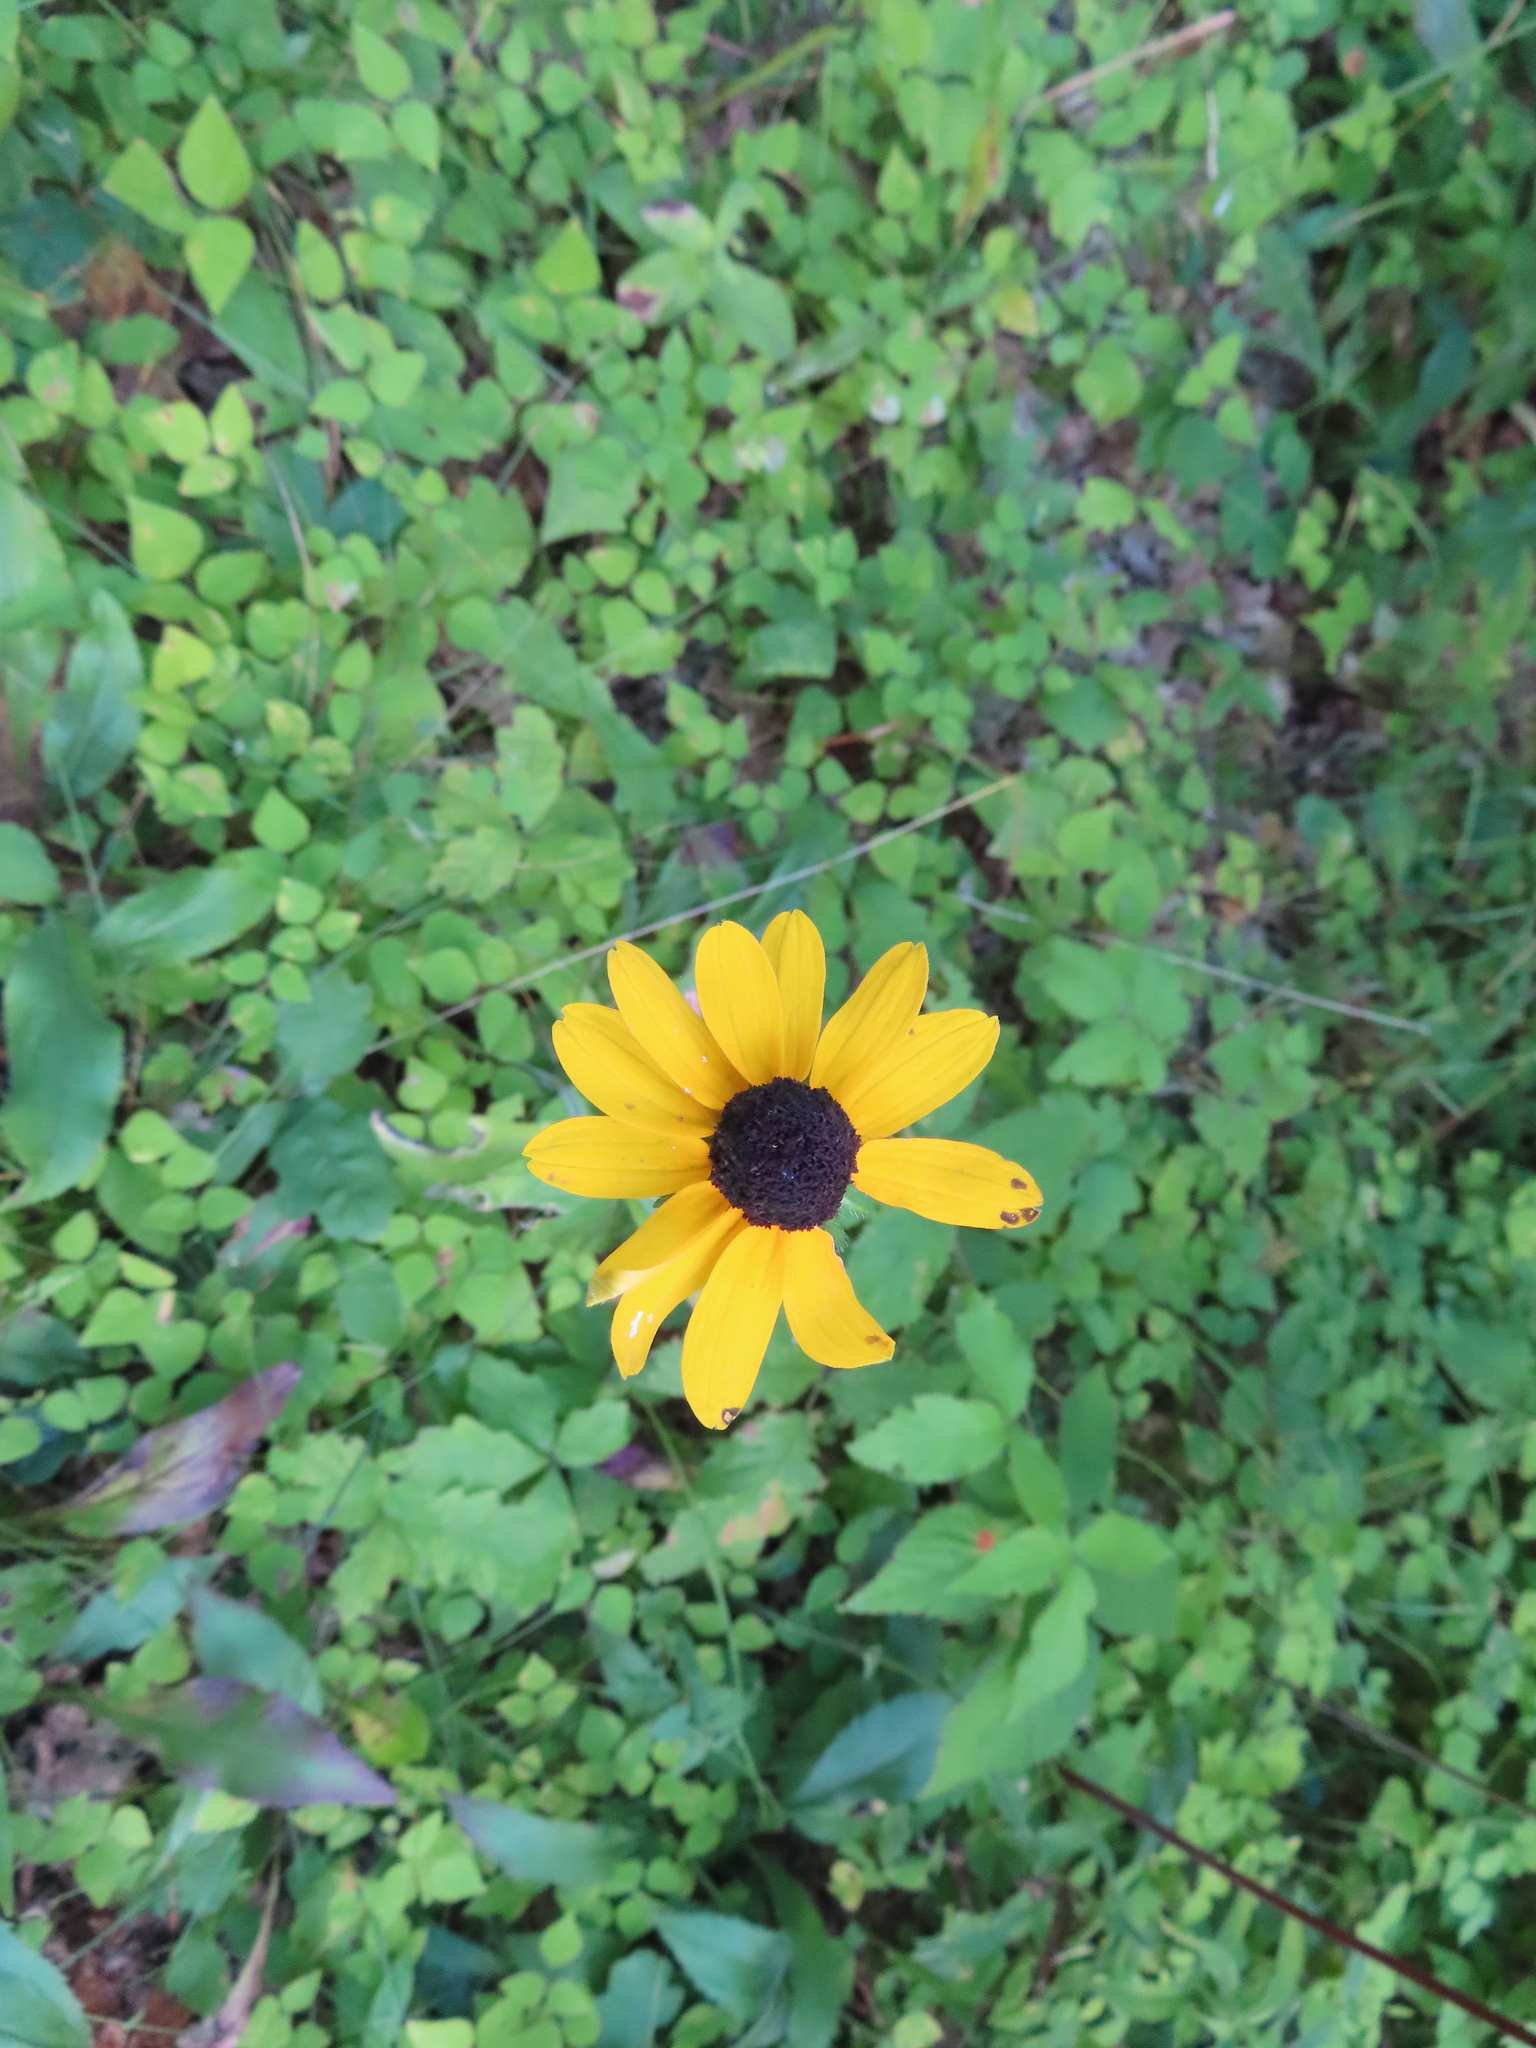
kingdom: Plantae
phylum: Tracheophyta
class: Magnoliopsida
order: Asterales
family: Asteraceae
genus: Rudbeckia
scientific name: Rudbeckia hirta
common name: Black-eyed-susan
